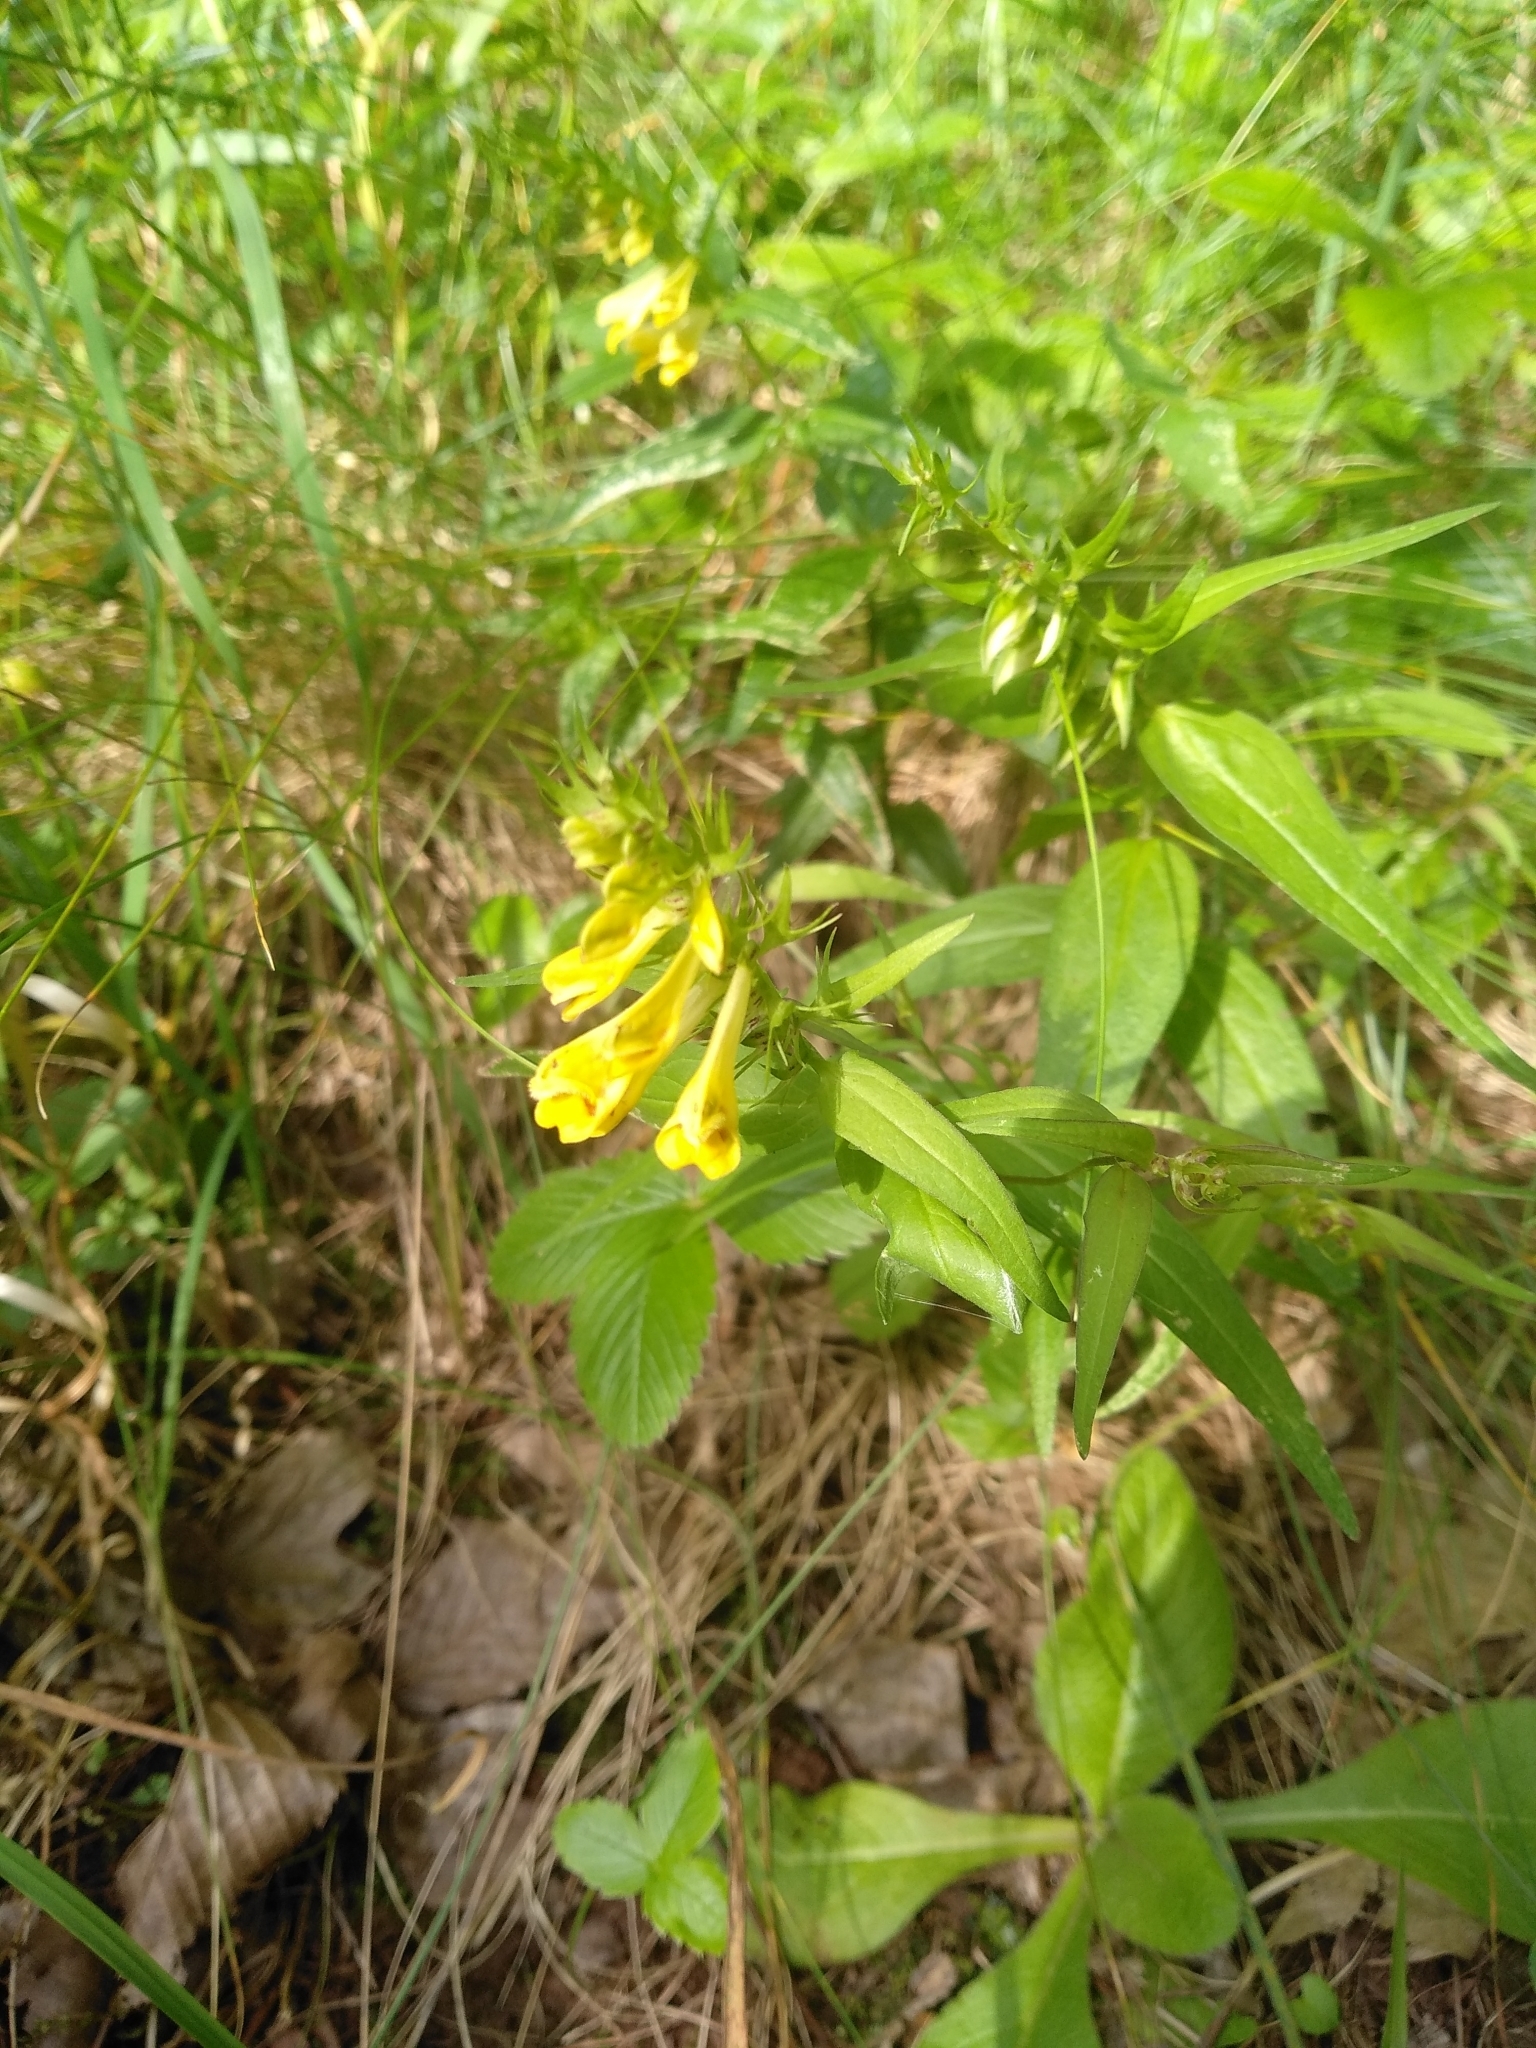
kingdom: Plantae
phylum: Tracheophyta
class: Magnoliopsida
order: Lamiales
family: Orobanchaceae
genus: Melampyrum
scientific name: Melampyrum pratense
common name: Common cow-wheat
